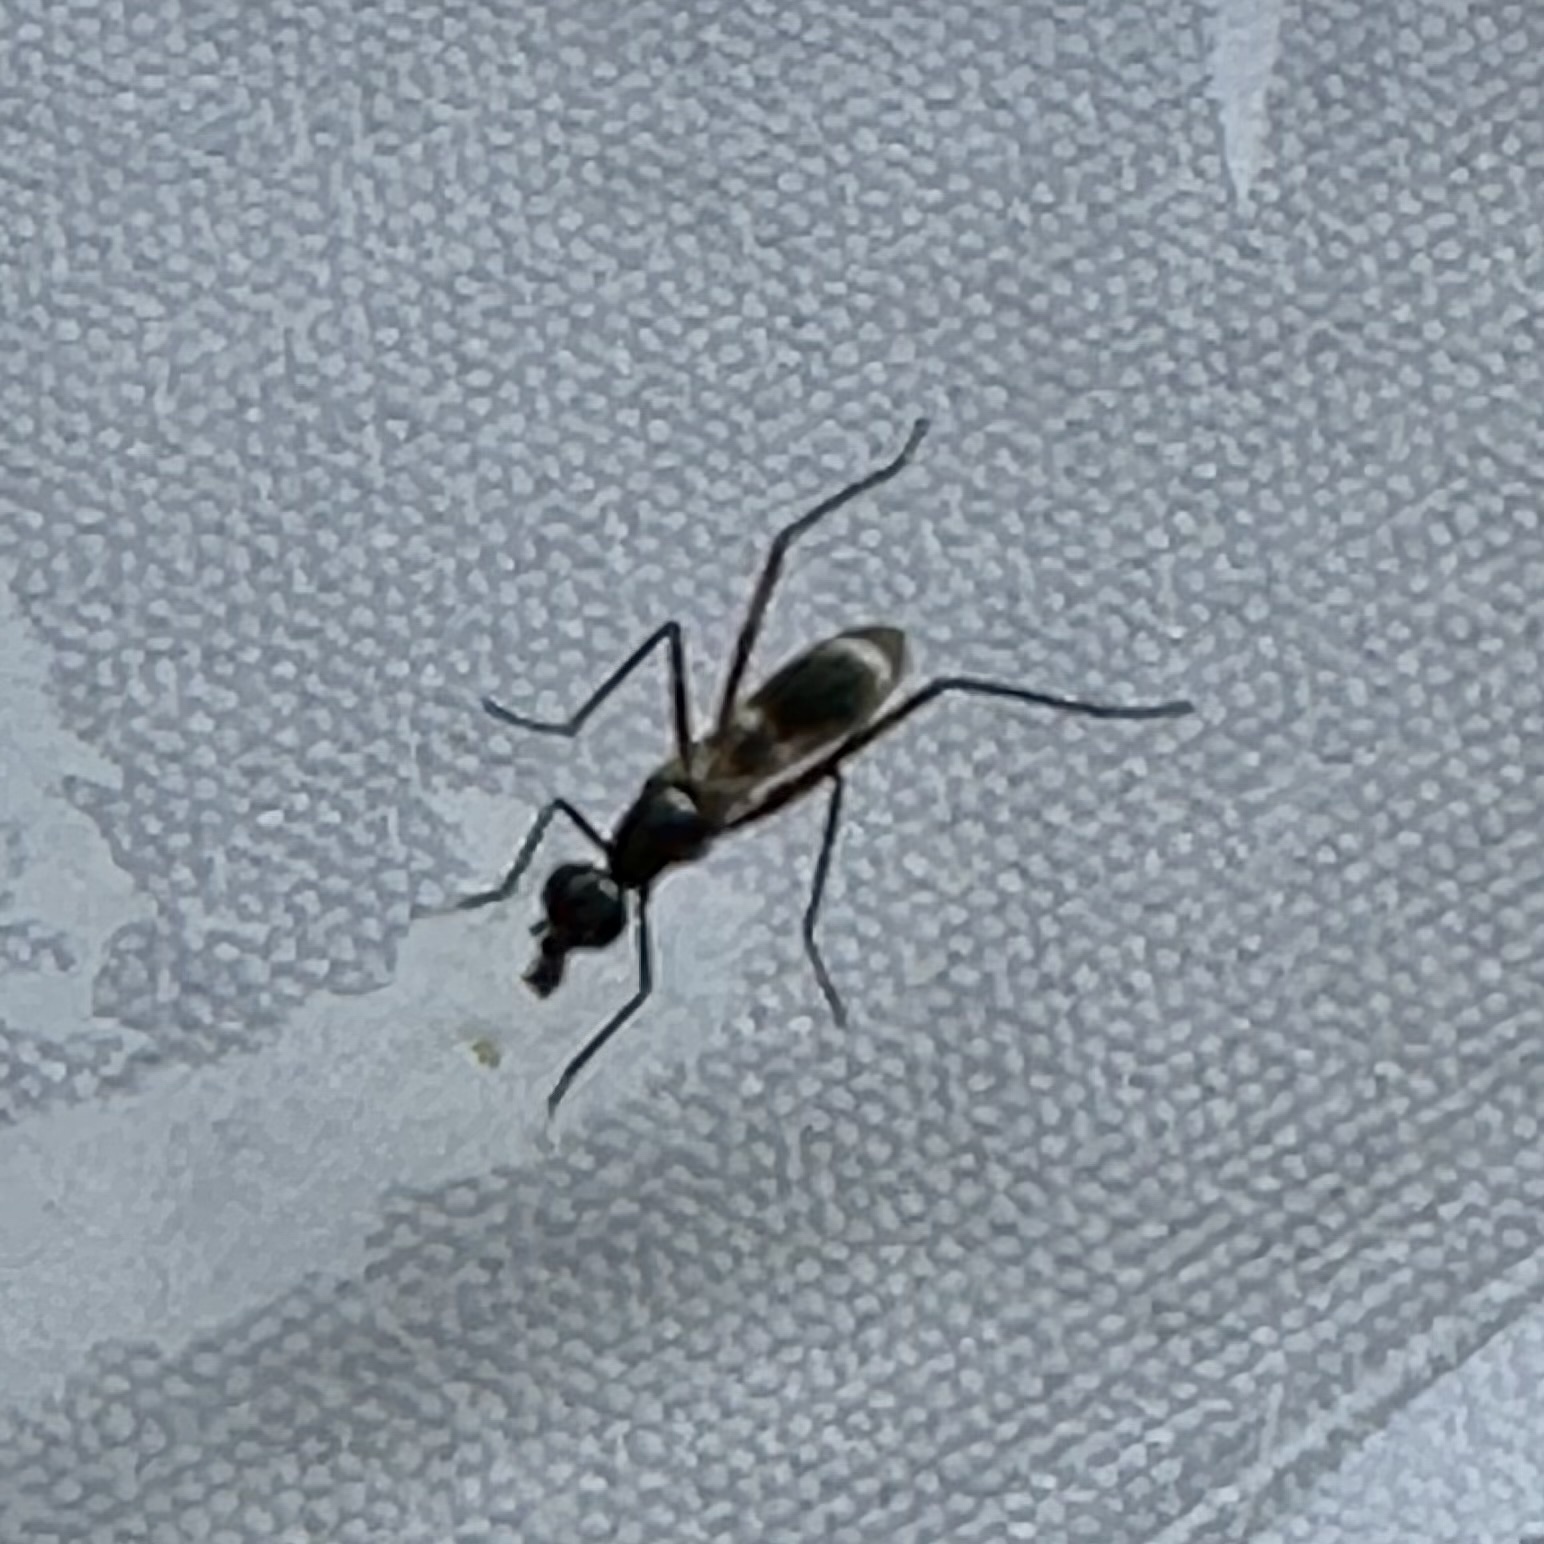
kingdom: Animalia
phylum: Arthropoda
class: Insecta
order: Diptera
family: Micropezidae
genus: Taeniaptera
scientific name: Taeniaptera trivittata
